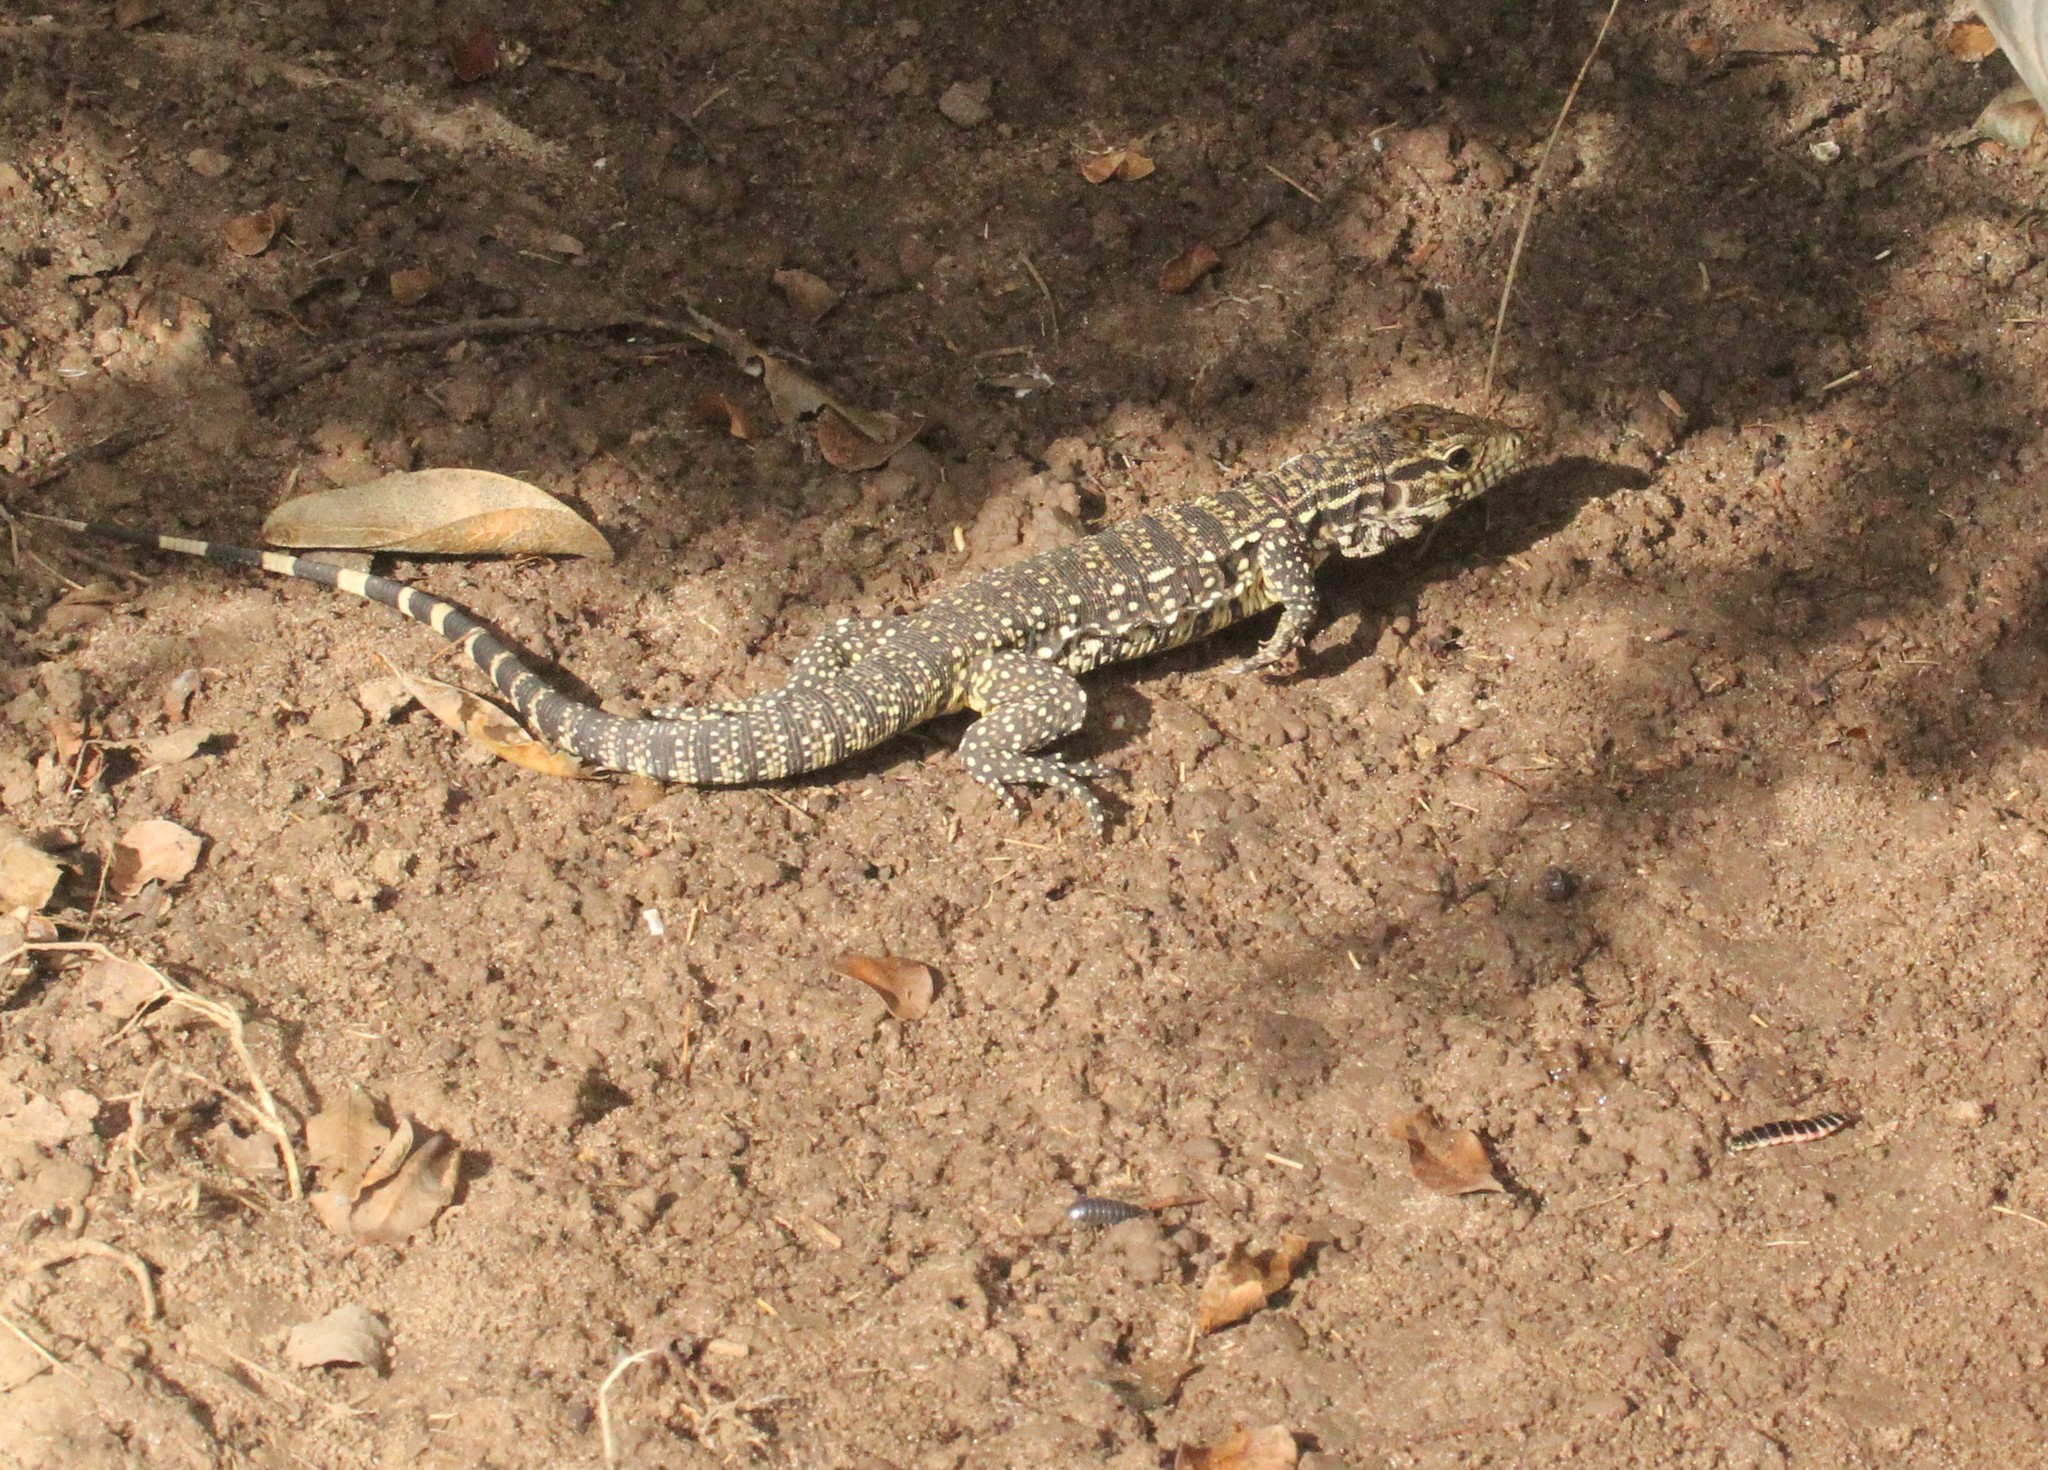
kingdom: Animalia
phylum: Chordata
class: Squamata
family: Teiidae
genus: Salvator
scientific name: Salvator merianae
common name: Argentine black and white tegu
